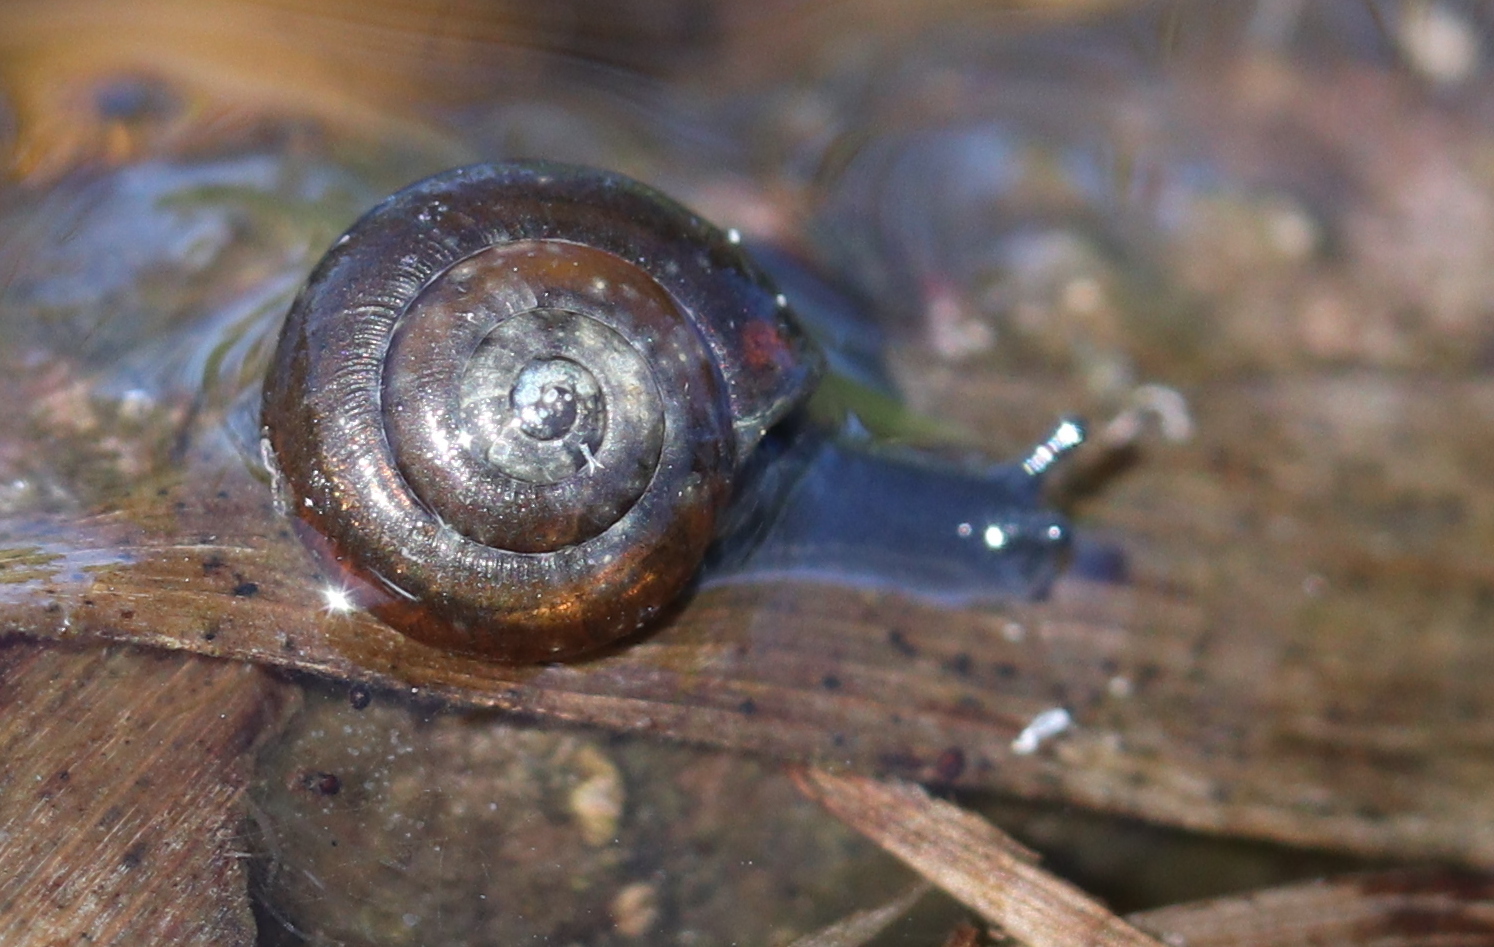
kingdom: Animalia
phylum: Mollusca
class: Gastropoda
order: Stylommatophora
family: Gastrodontidae
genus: Zonitoides
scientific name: Zonitoides nitidus
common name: Shiny glass snail
